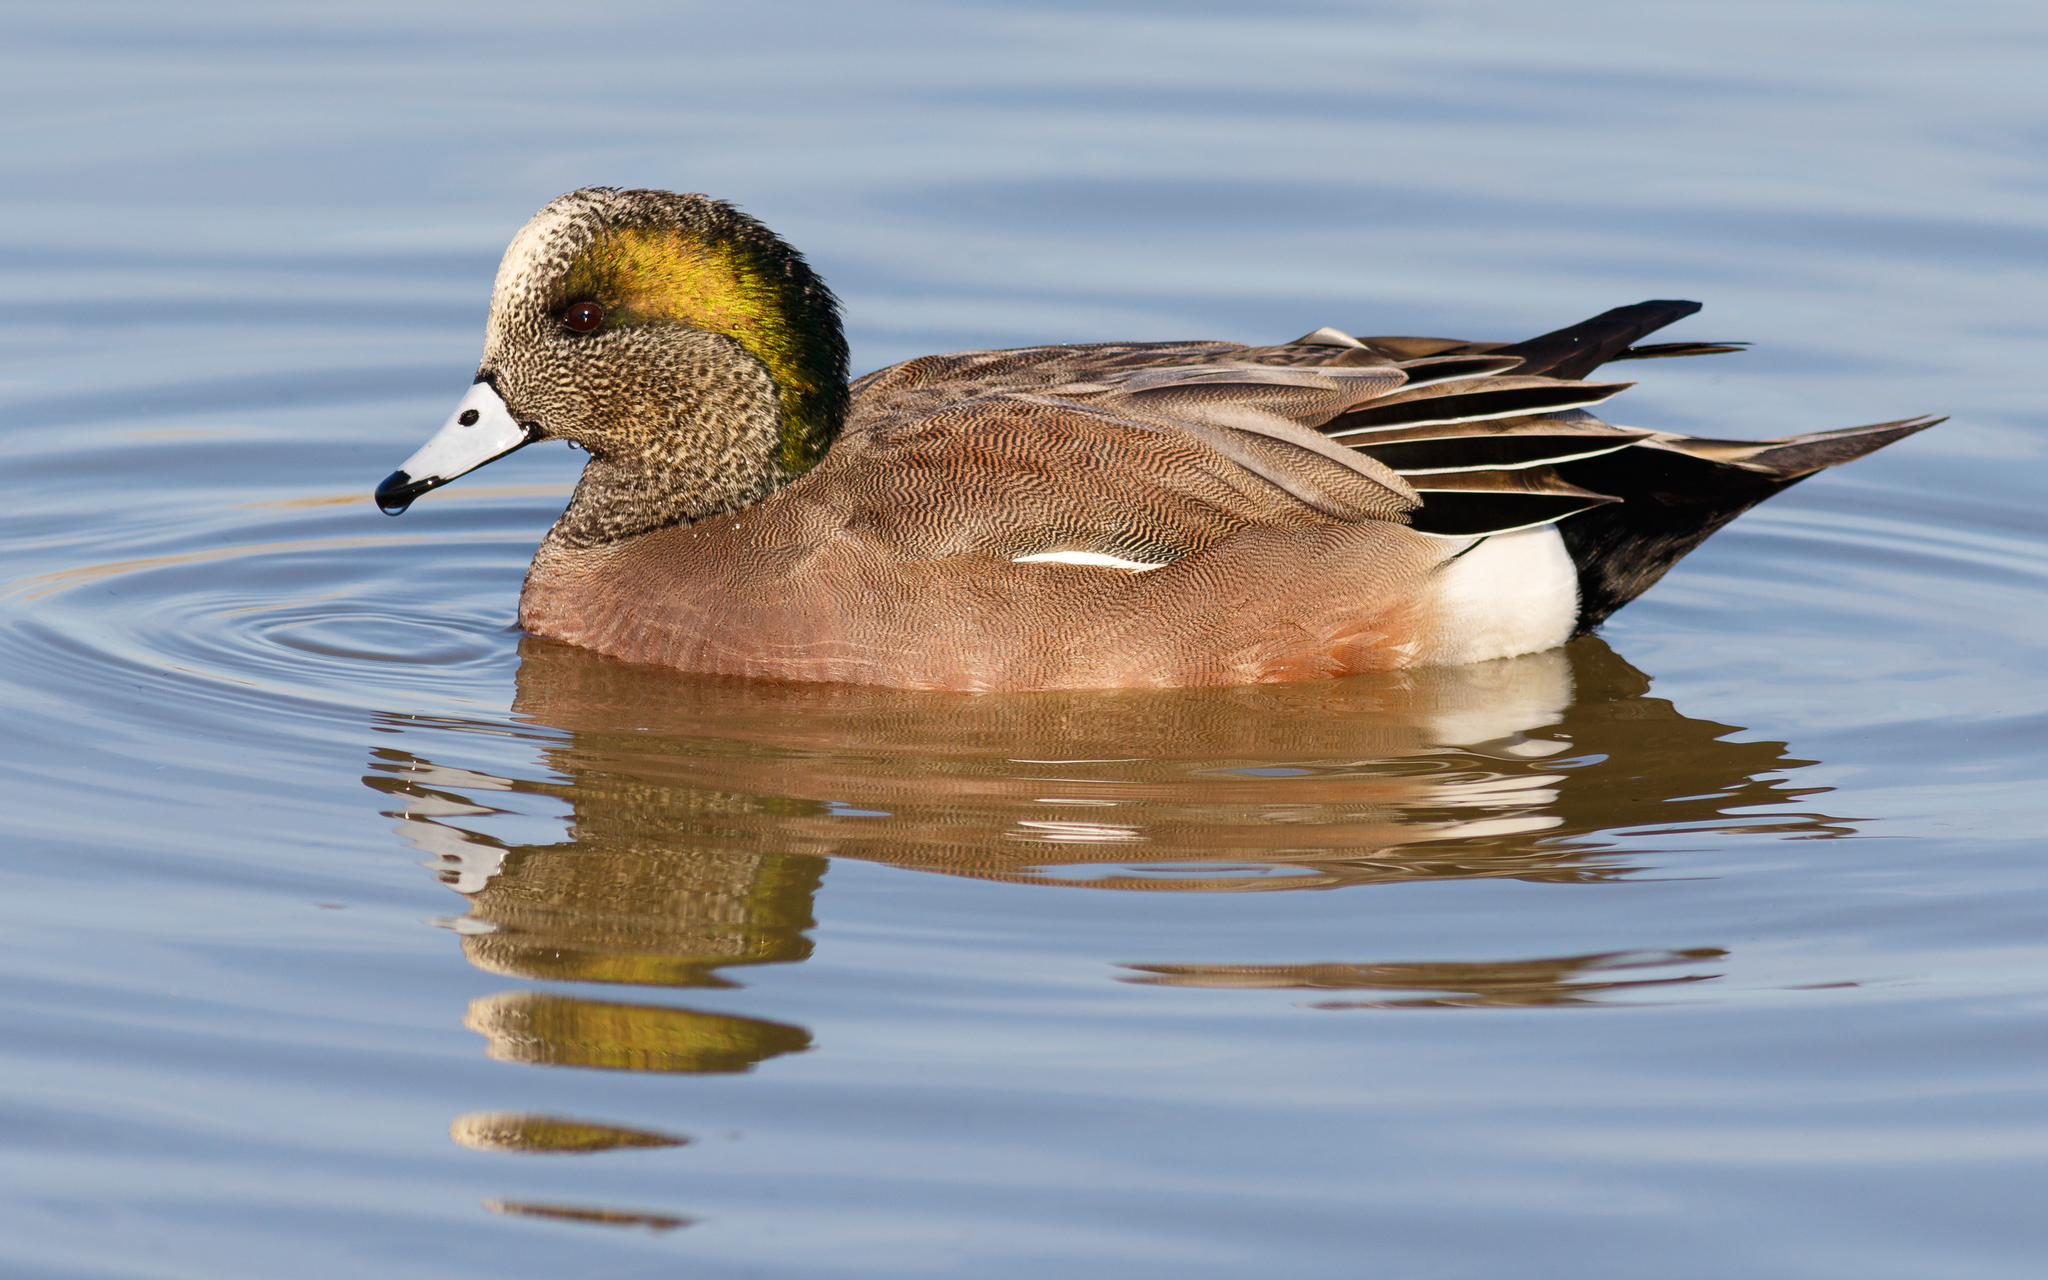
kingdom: Animalia
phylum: Chordata
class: Aves
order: Anseriformes
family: Anatidae
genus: Mareca
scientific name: Mareca americana
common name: American wigeon
